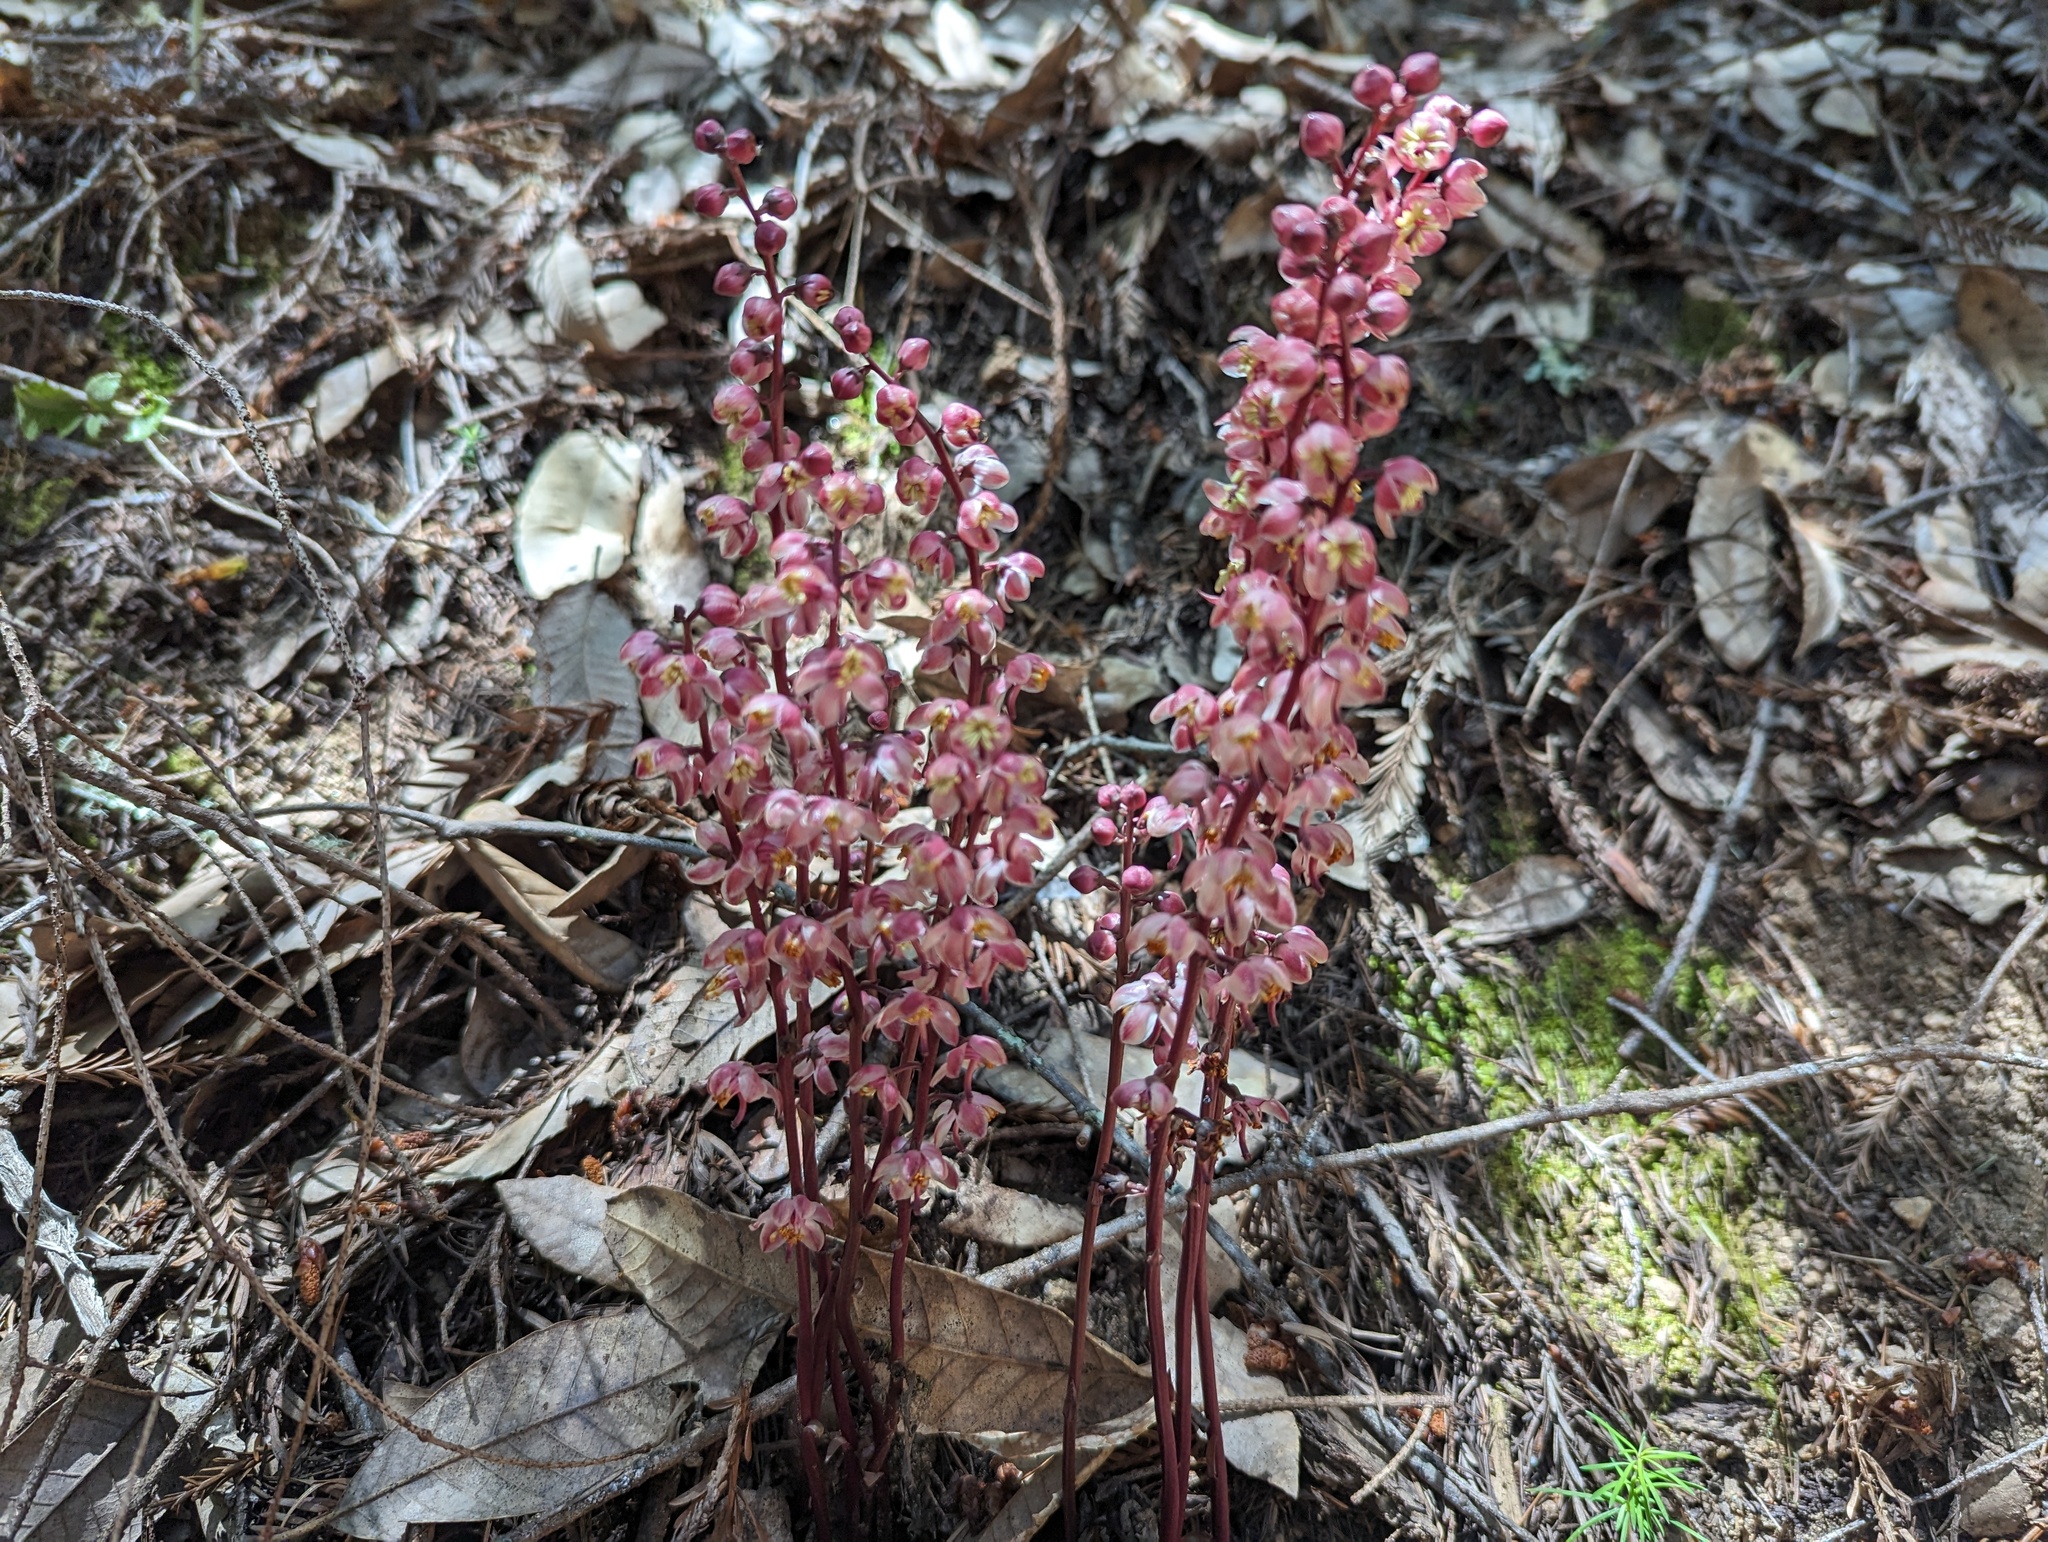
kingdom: Plantae
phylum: Tracheophyta
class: Magnoliopsida
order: Ericales
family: Ericaceae
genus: Pyrola
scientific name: Pyrola aphylla
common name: Leafless wintergreen
